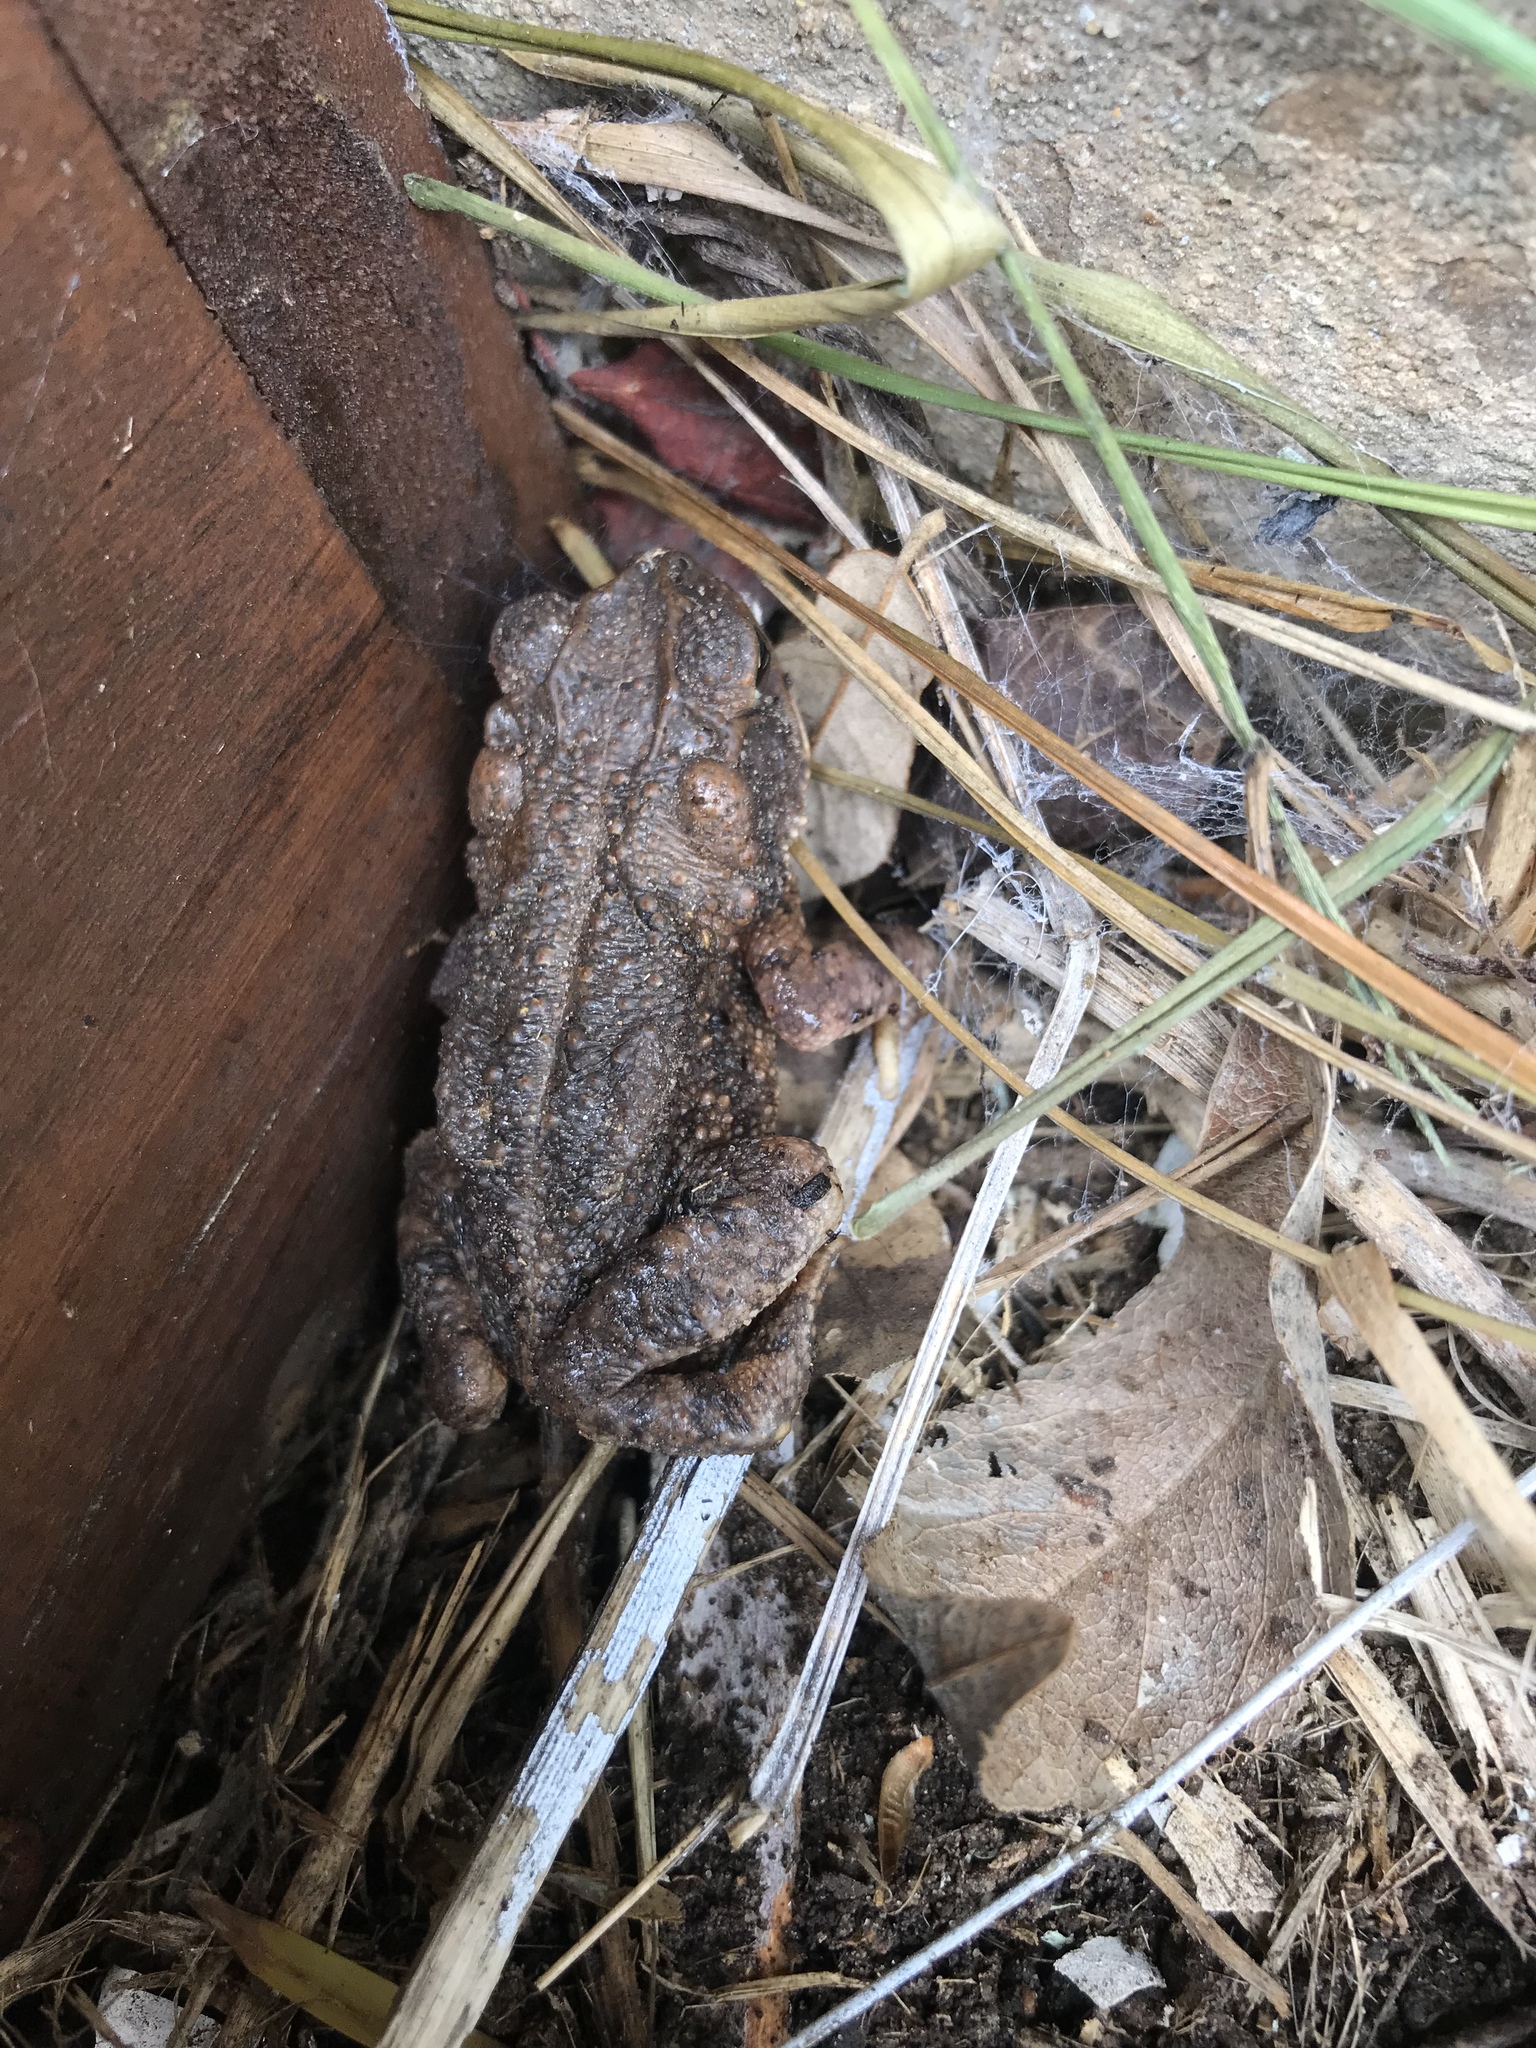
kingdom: Animalia
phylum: Chordata
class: Amphibia
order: Anura
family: Bufonidae
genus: Incilius
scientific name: Incilius nebulifer
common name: Gulf coast toad
